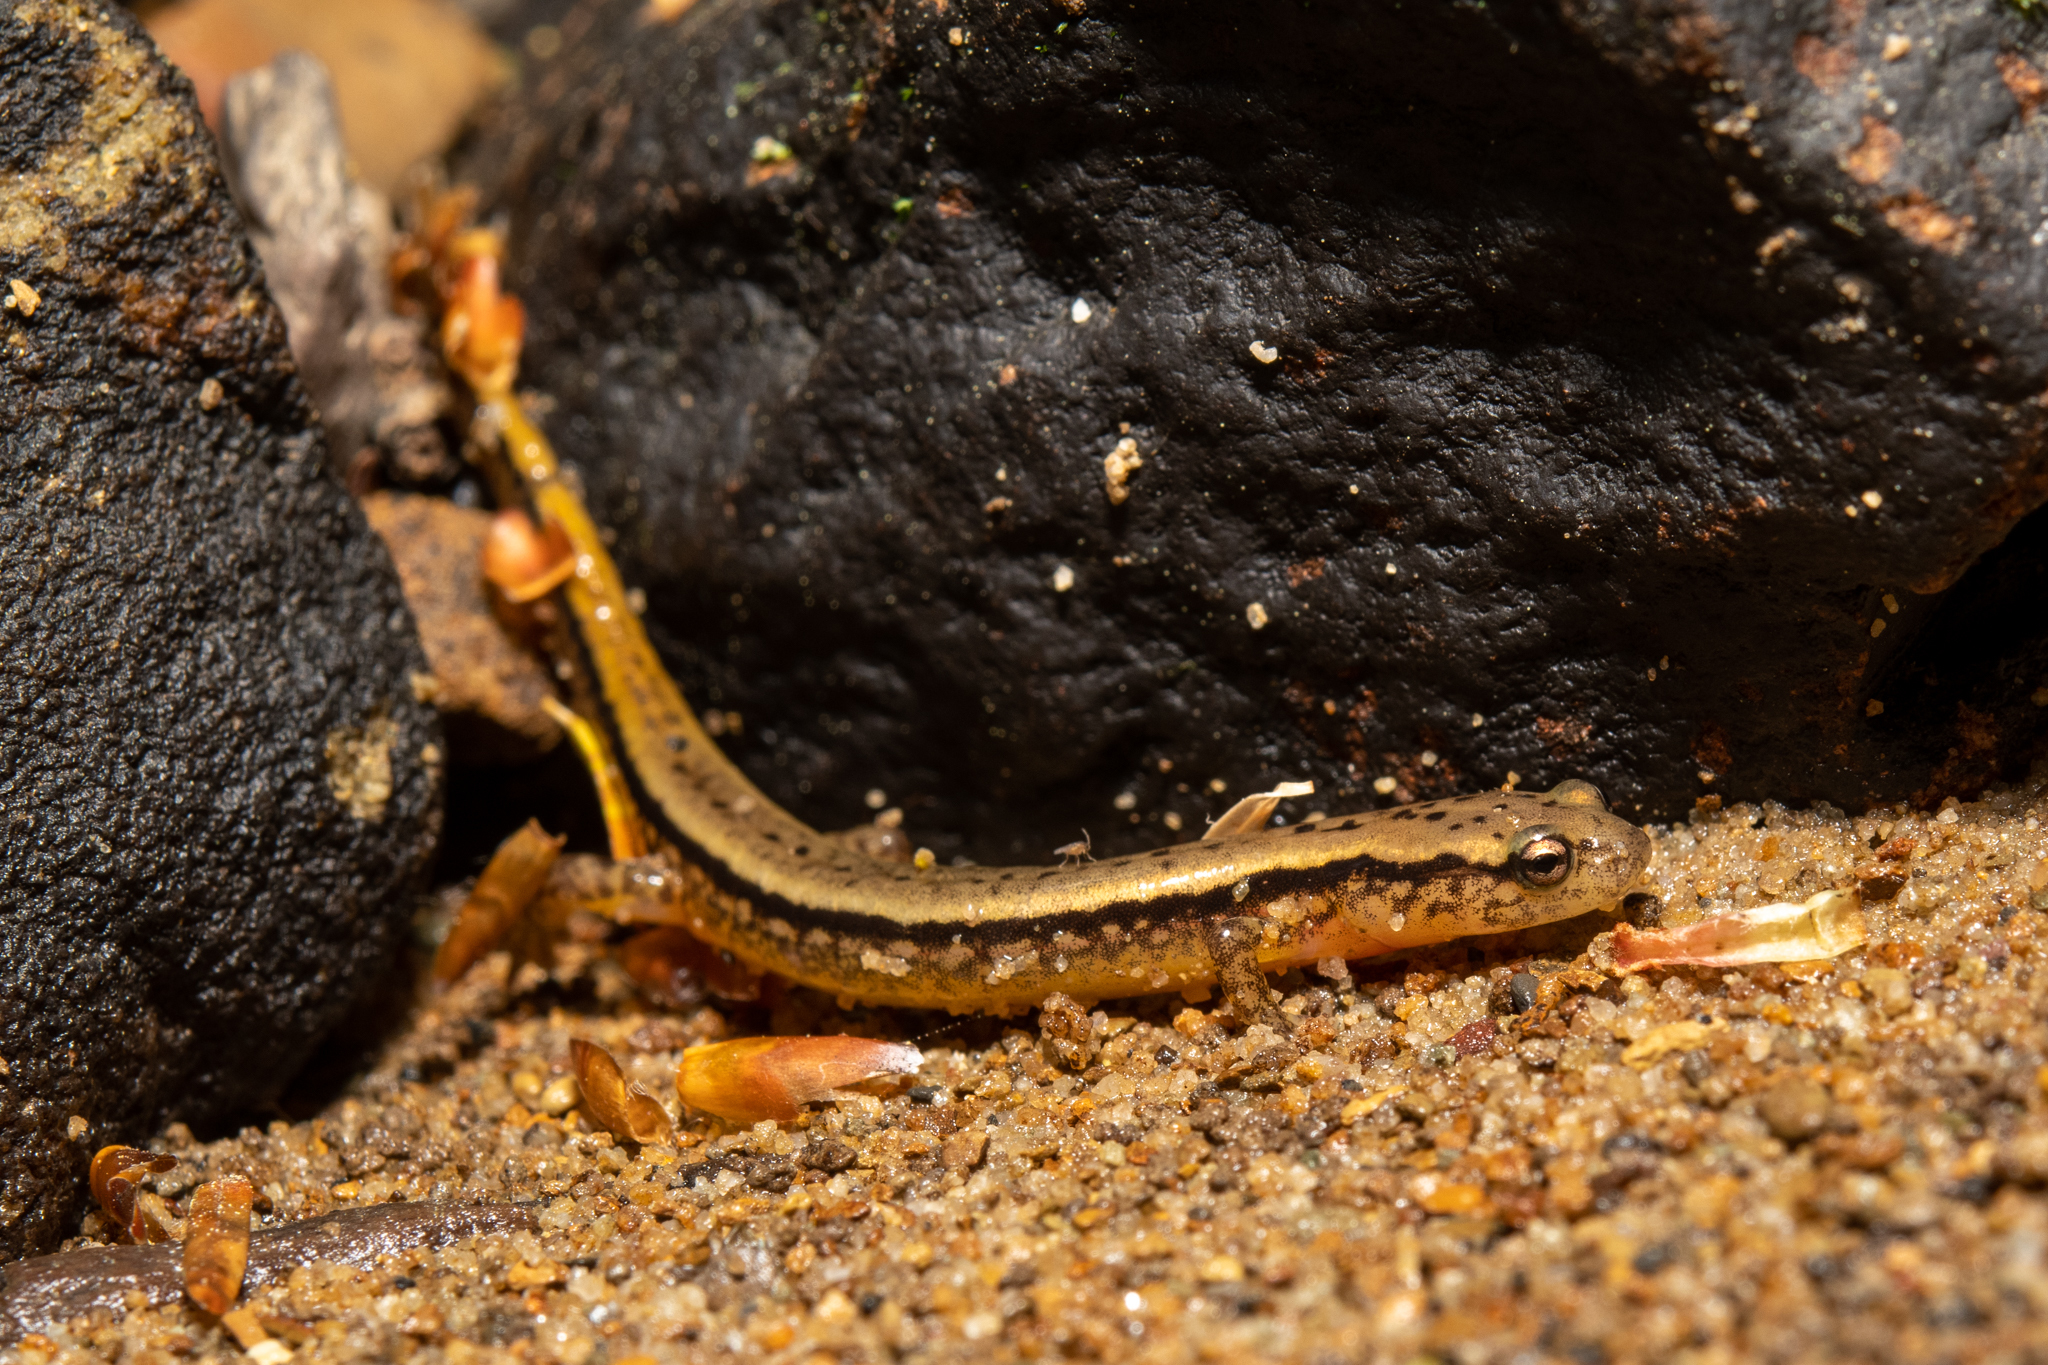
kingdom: Animalia
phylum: Chordata
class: Amphibia
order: Caudata
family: Plethodontidae
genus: Eurycea
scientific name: Eurycea bislineata
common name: Northern two-lined salamander
